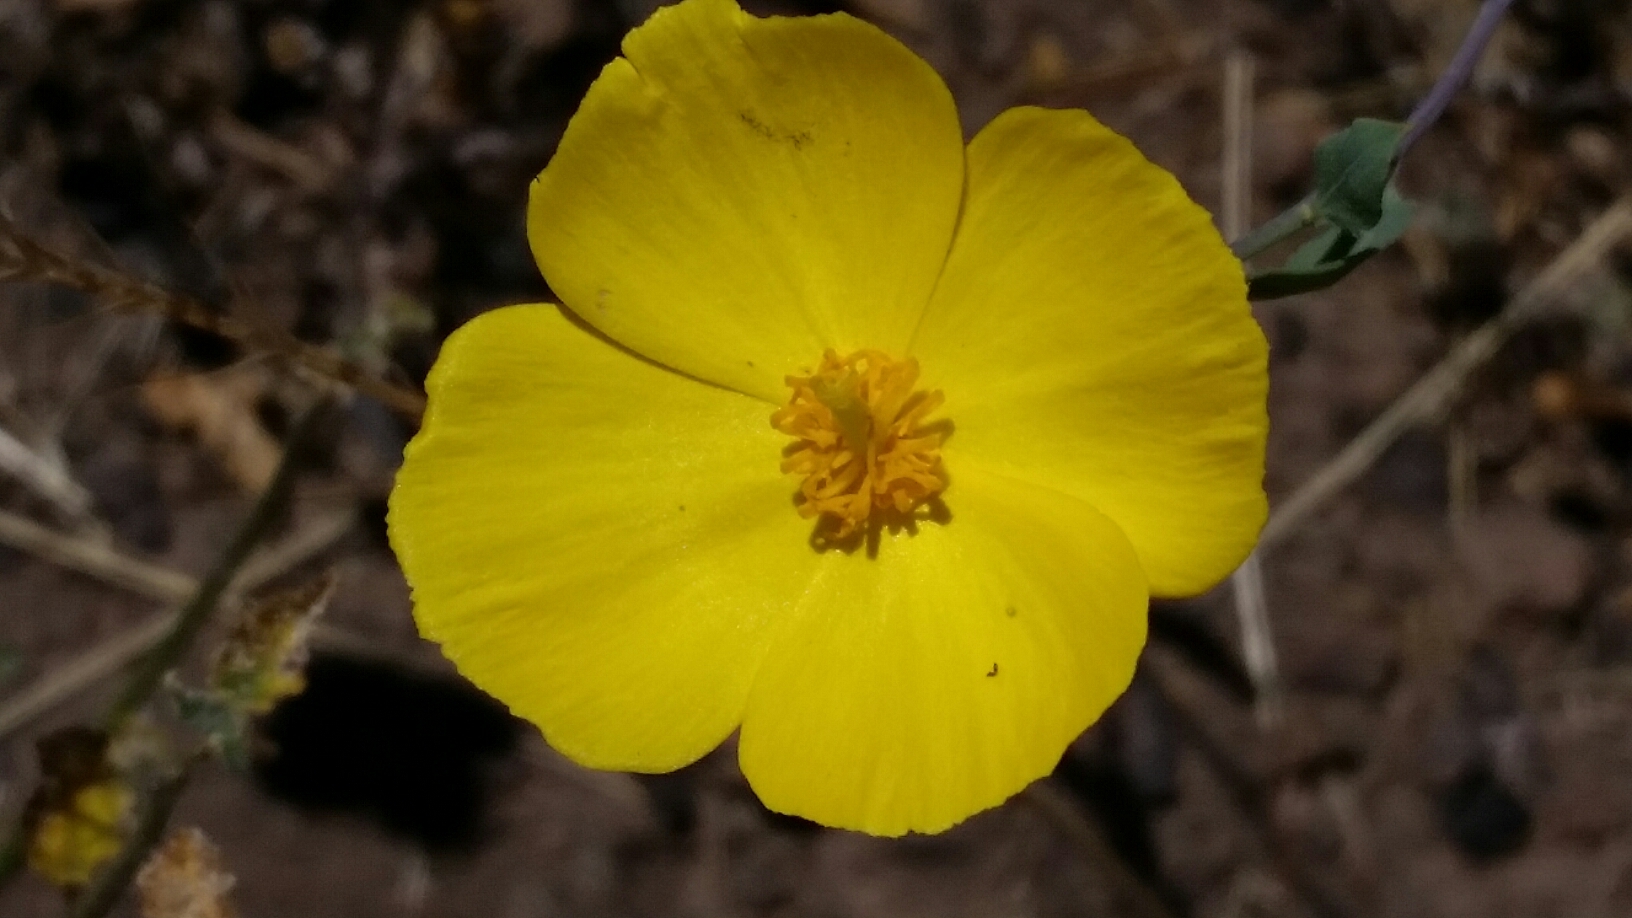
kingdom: Plantae
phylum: Tracheophyta
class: Magnoliopsida
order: Ranunculales
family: Papaveraceae
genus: Dendromecon
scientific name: Dendromecon rigida
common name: Tree poppy
